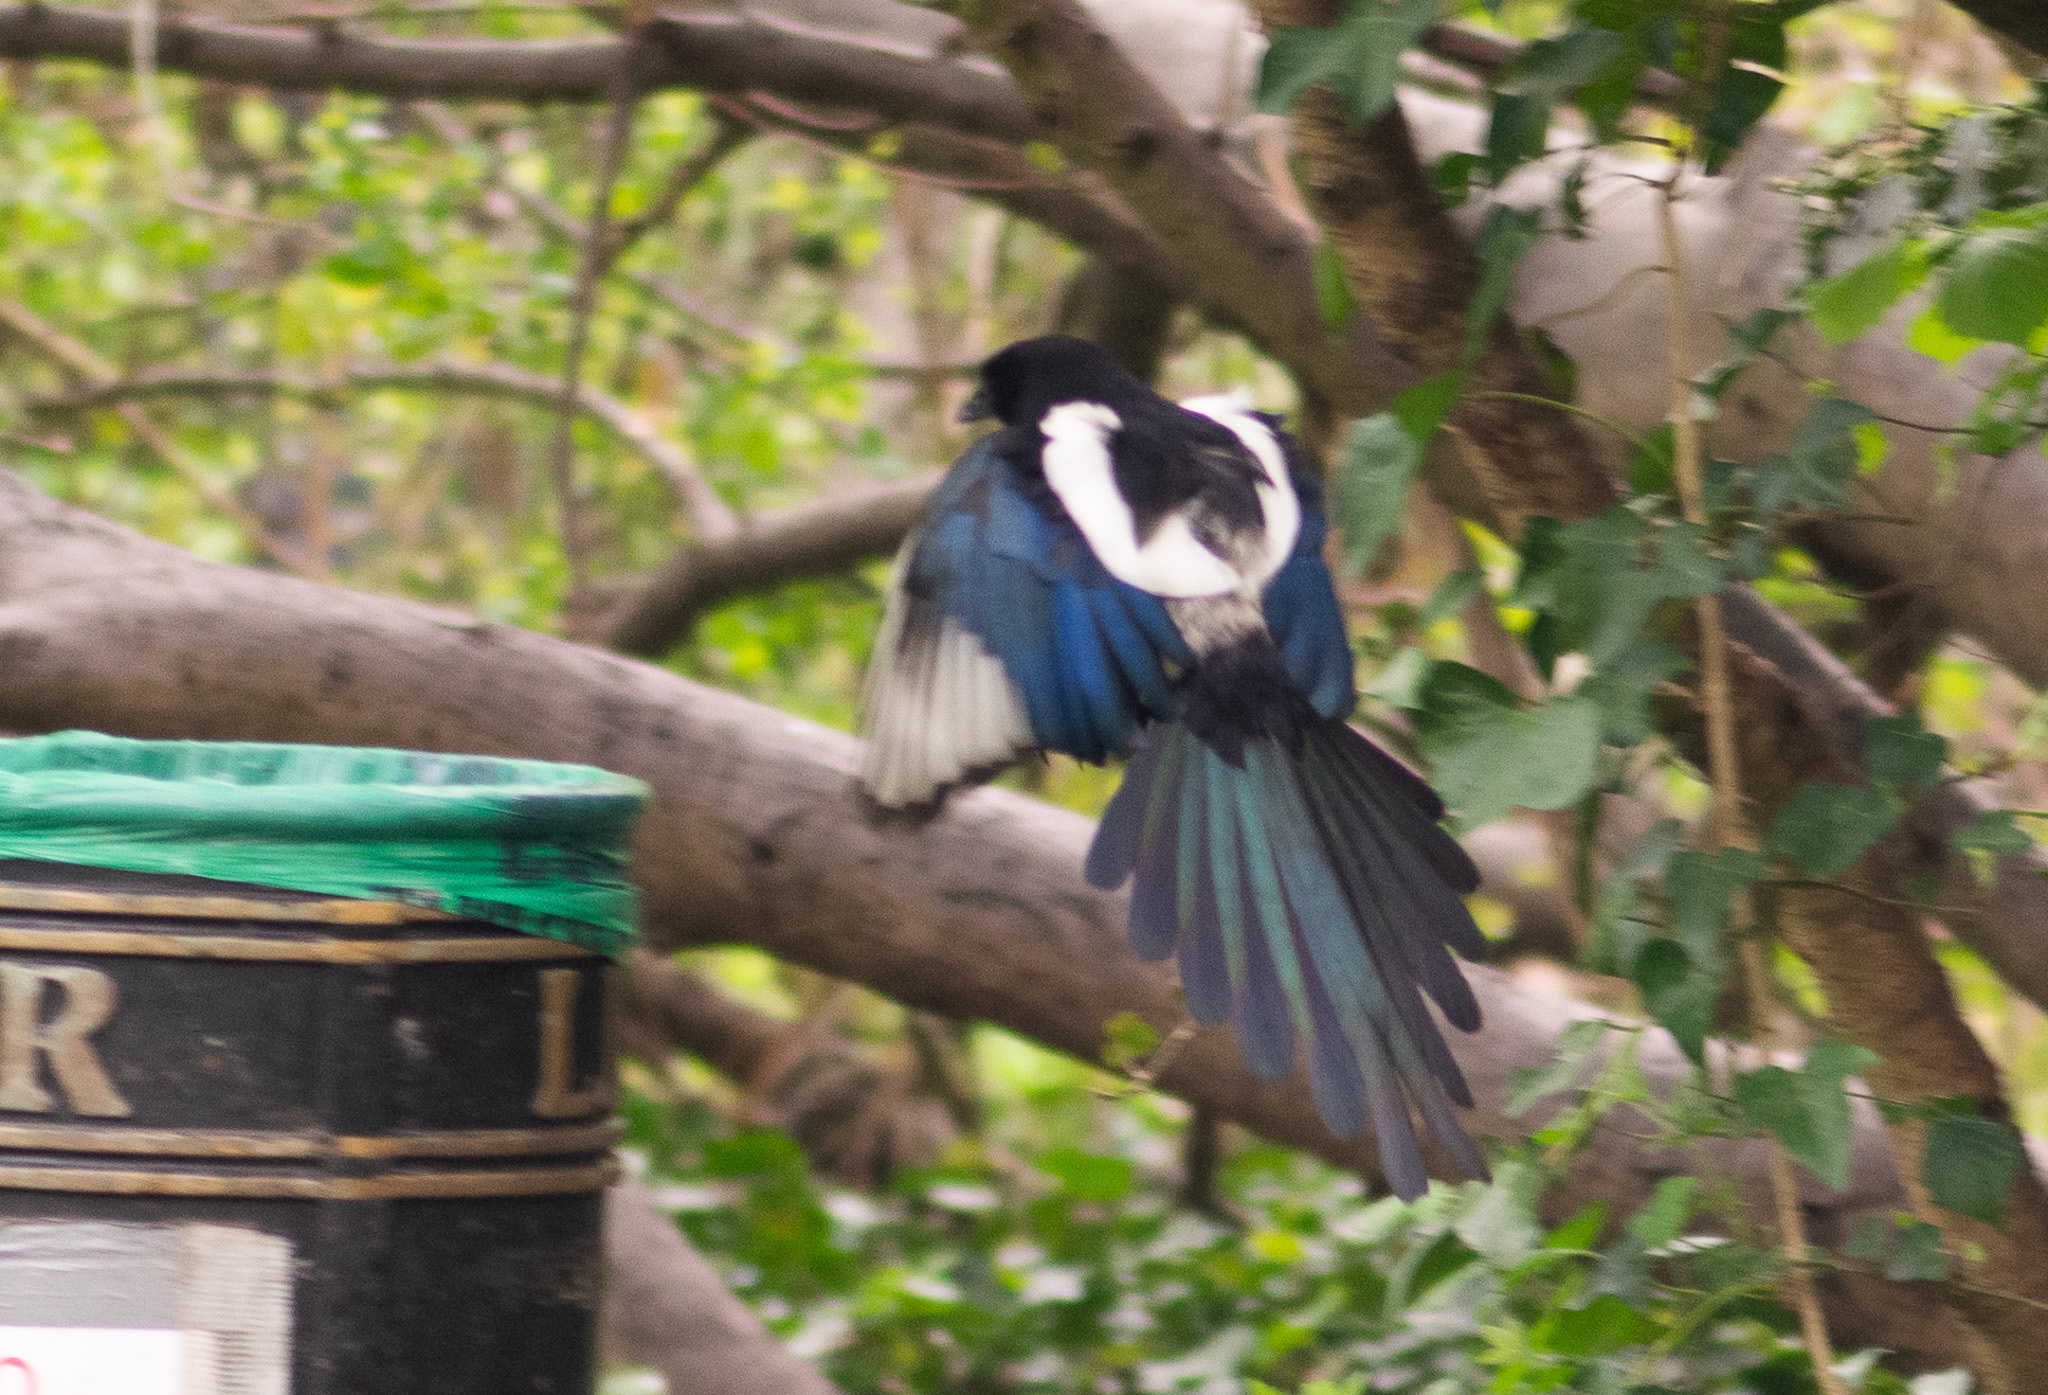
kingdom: Animalia
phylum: Chordata
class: Aves
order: Passeriformes
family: Corvidae
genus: Pica
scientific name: Pica pica
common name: Eurasian magpie
